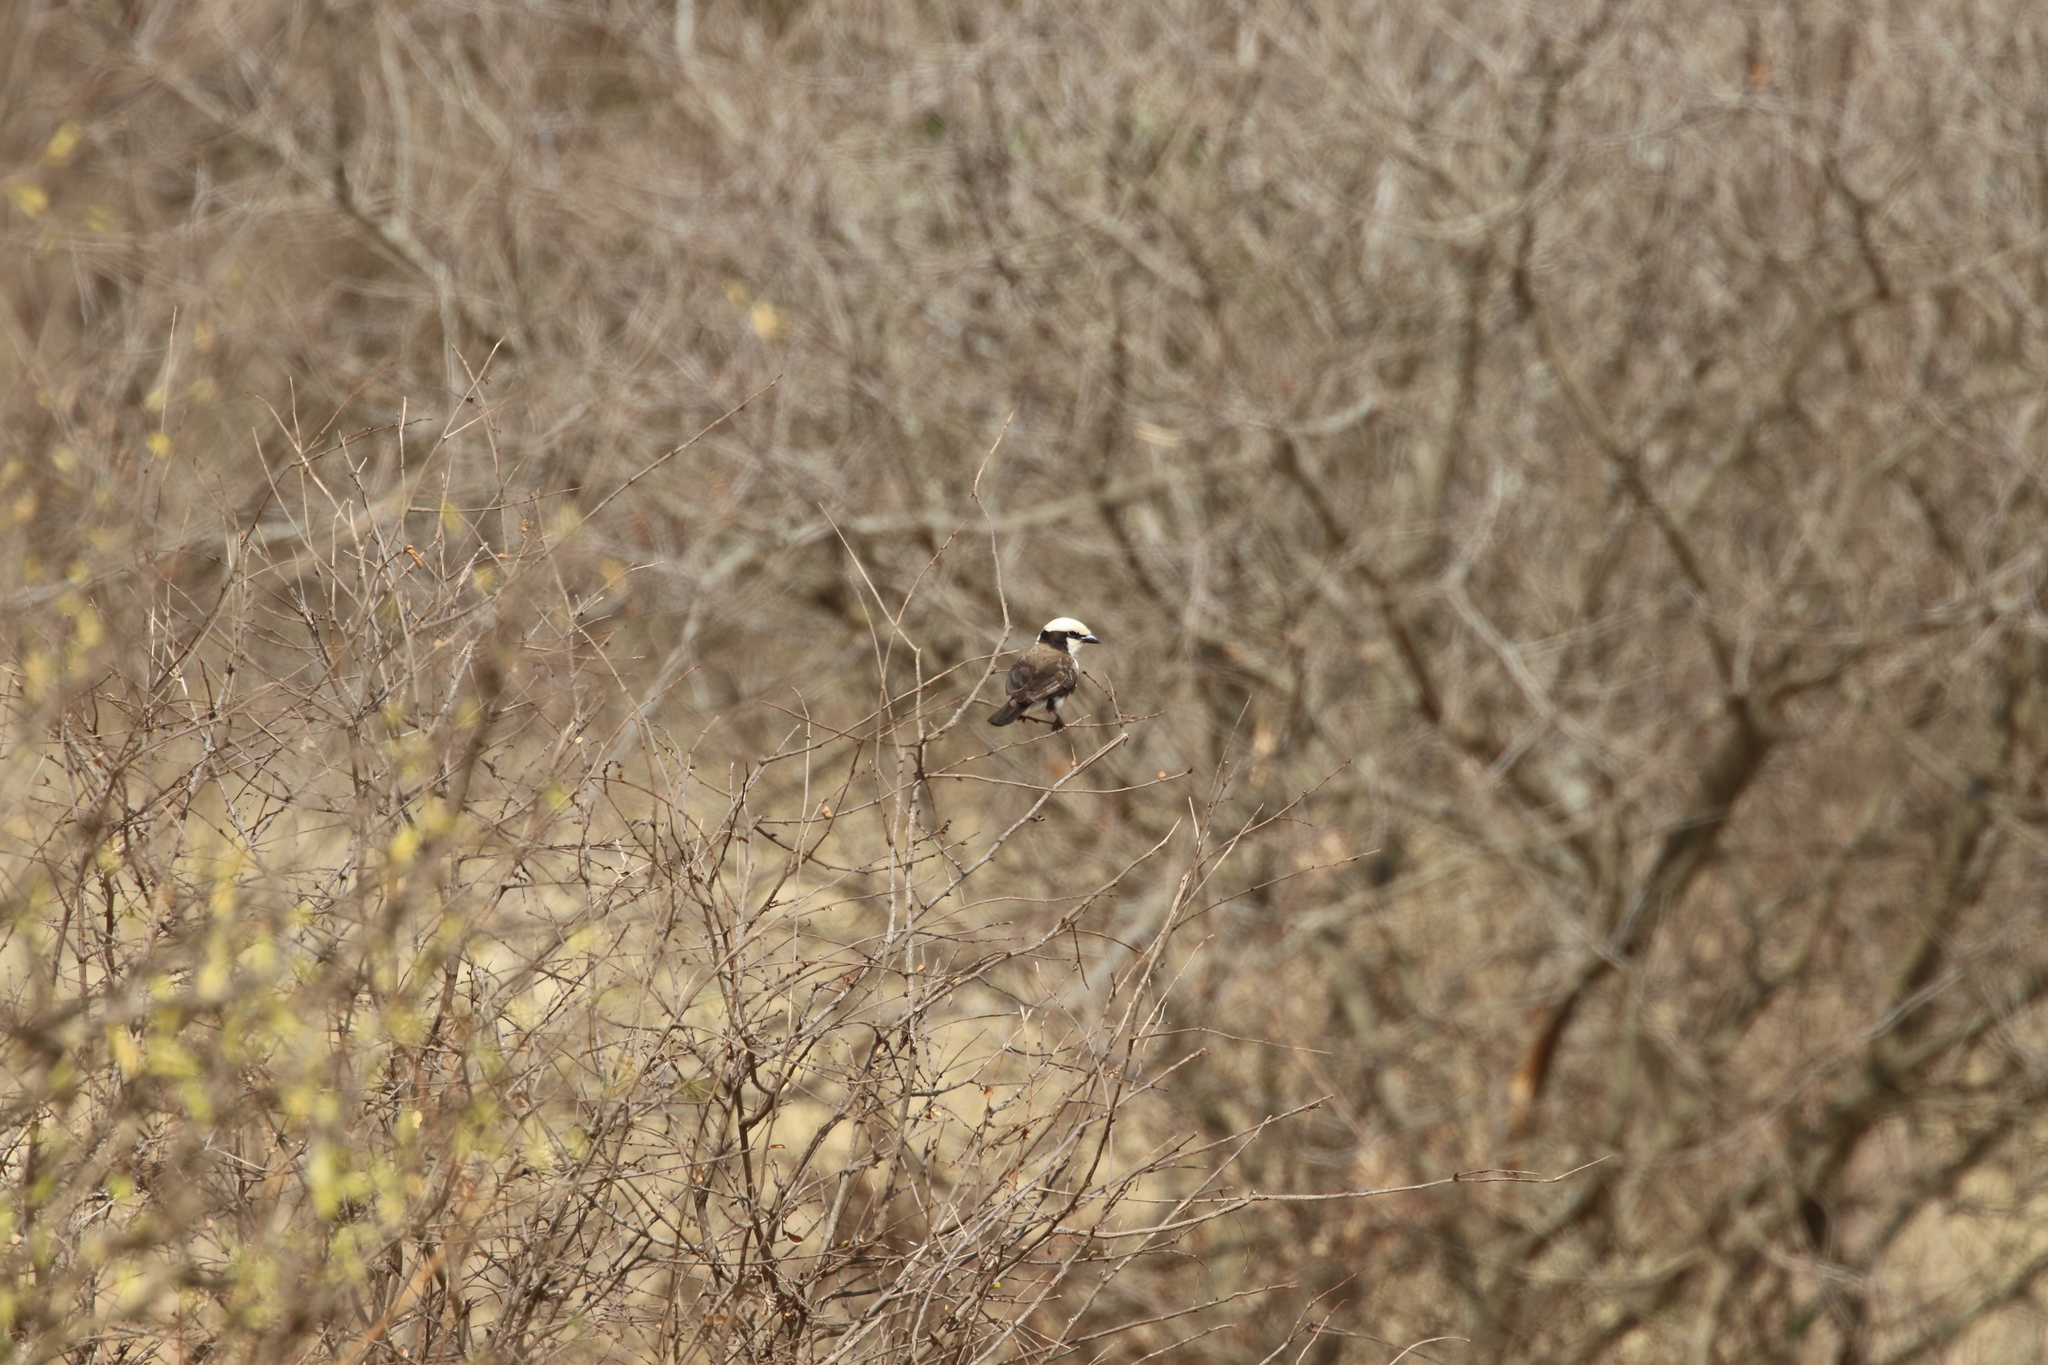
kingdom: Animalia
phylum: Chordata
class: Aves
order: Passeriformes
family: Laniidae
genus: Eurocephalus
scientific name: Eurocephalus ruppelli
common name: Northern white-crowned shrike
